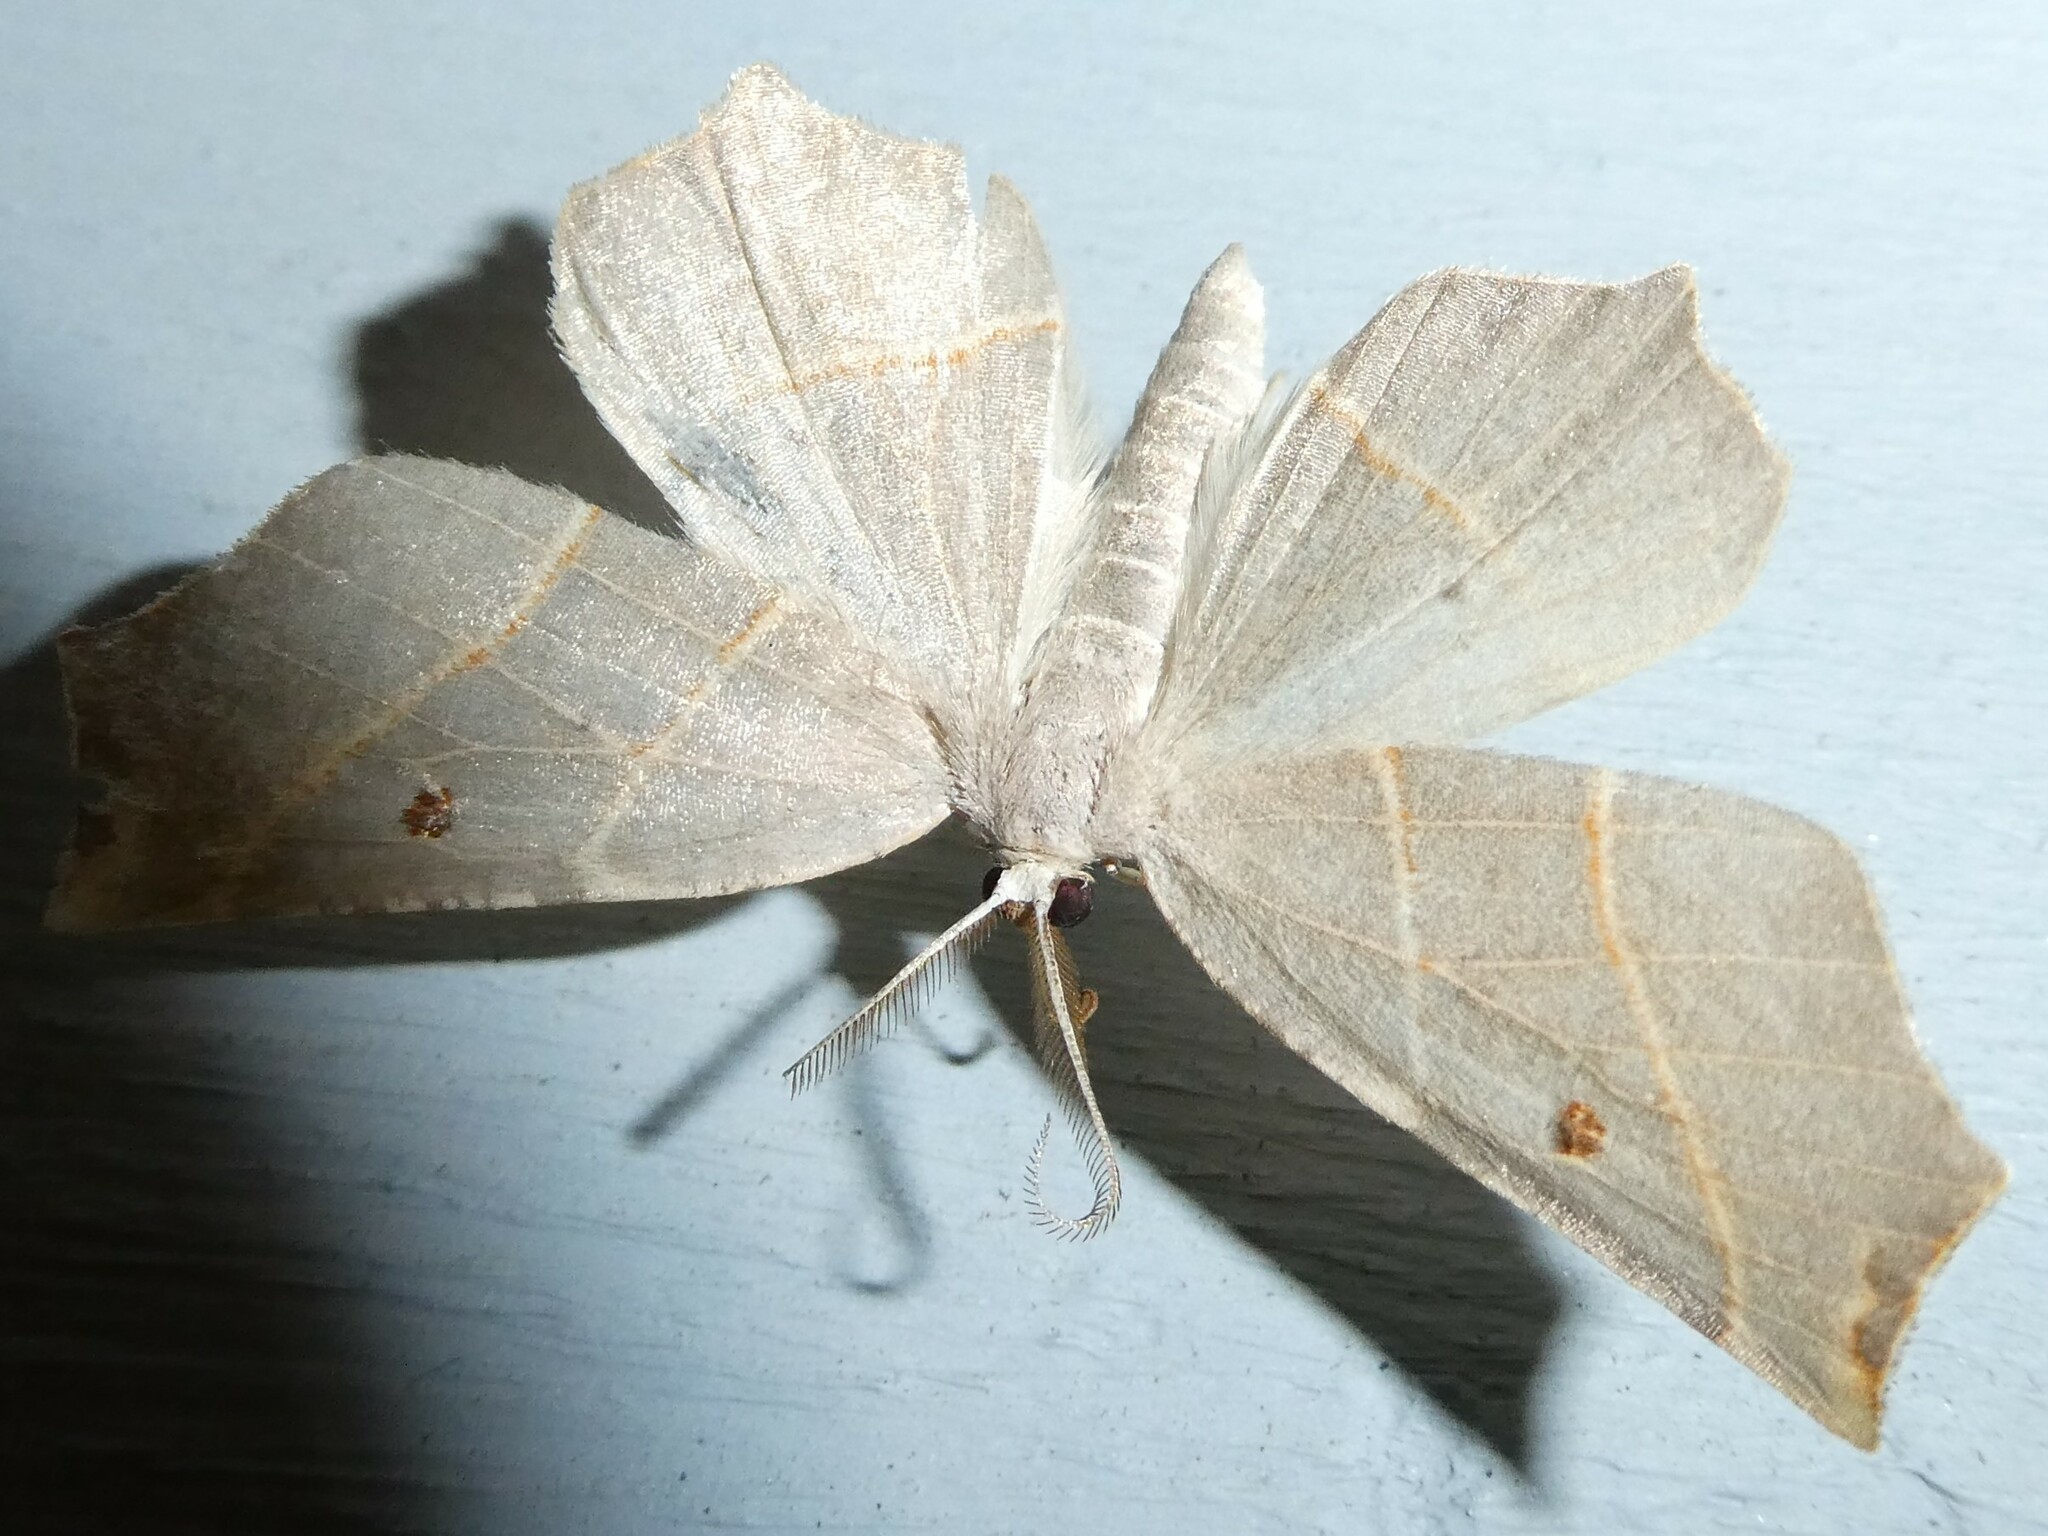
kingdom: Animalia
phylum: Arthropoda
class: Insecta
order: Lepidoptera
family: Geometridae
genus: Metanema
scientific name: Metanema inatomaria
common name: Pale metanema
